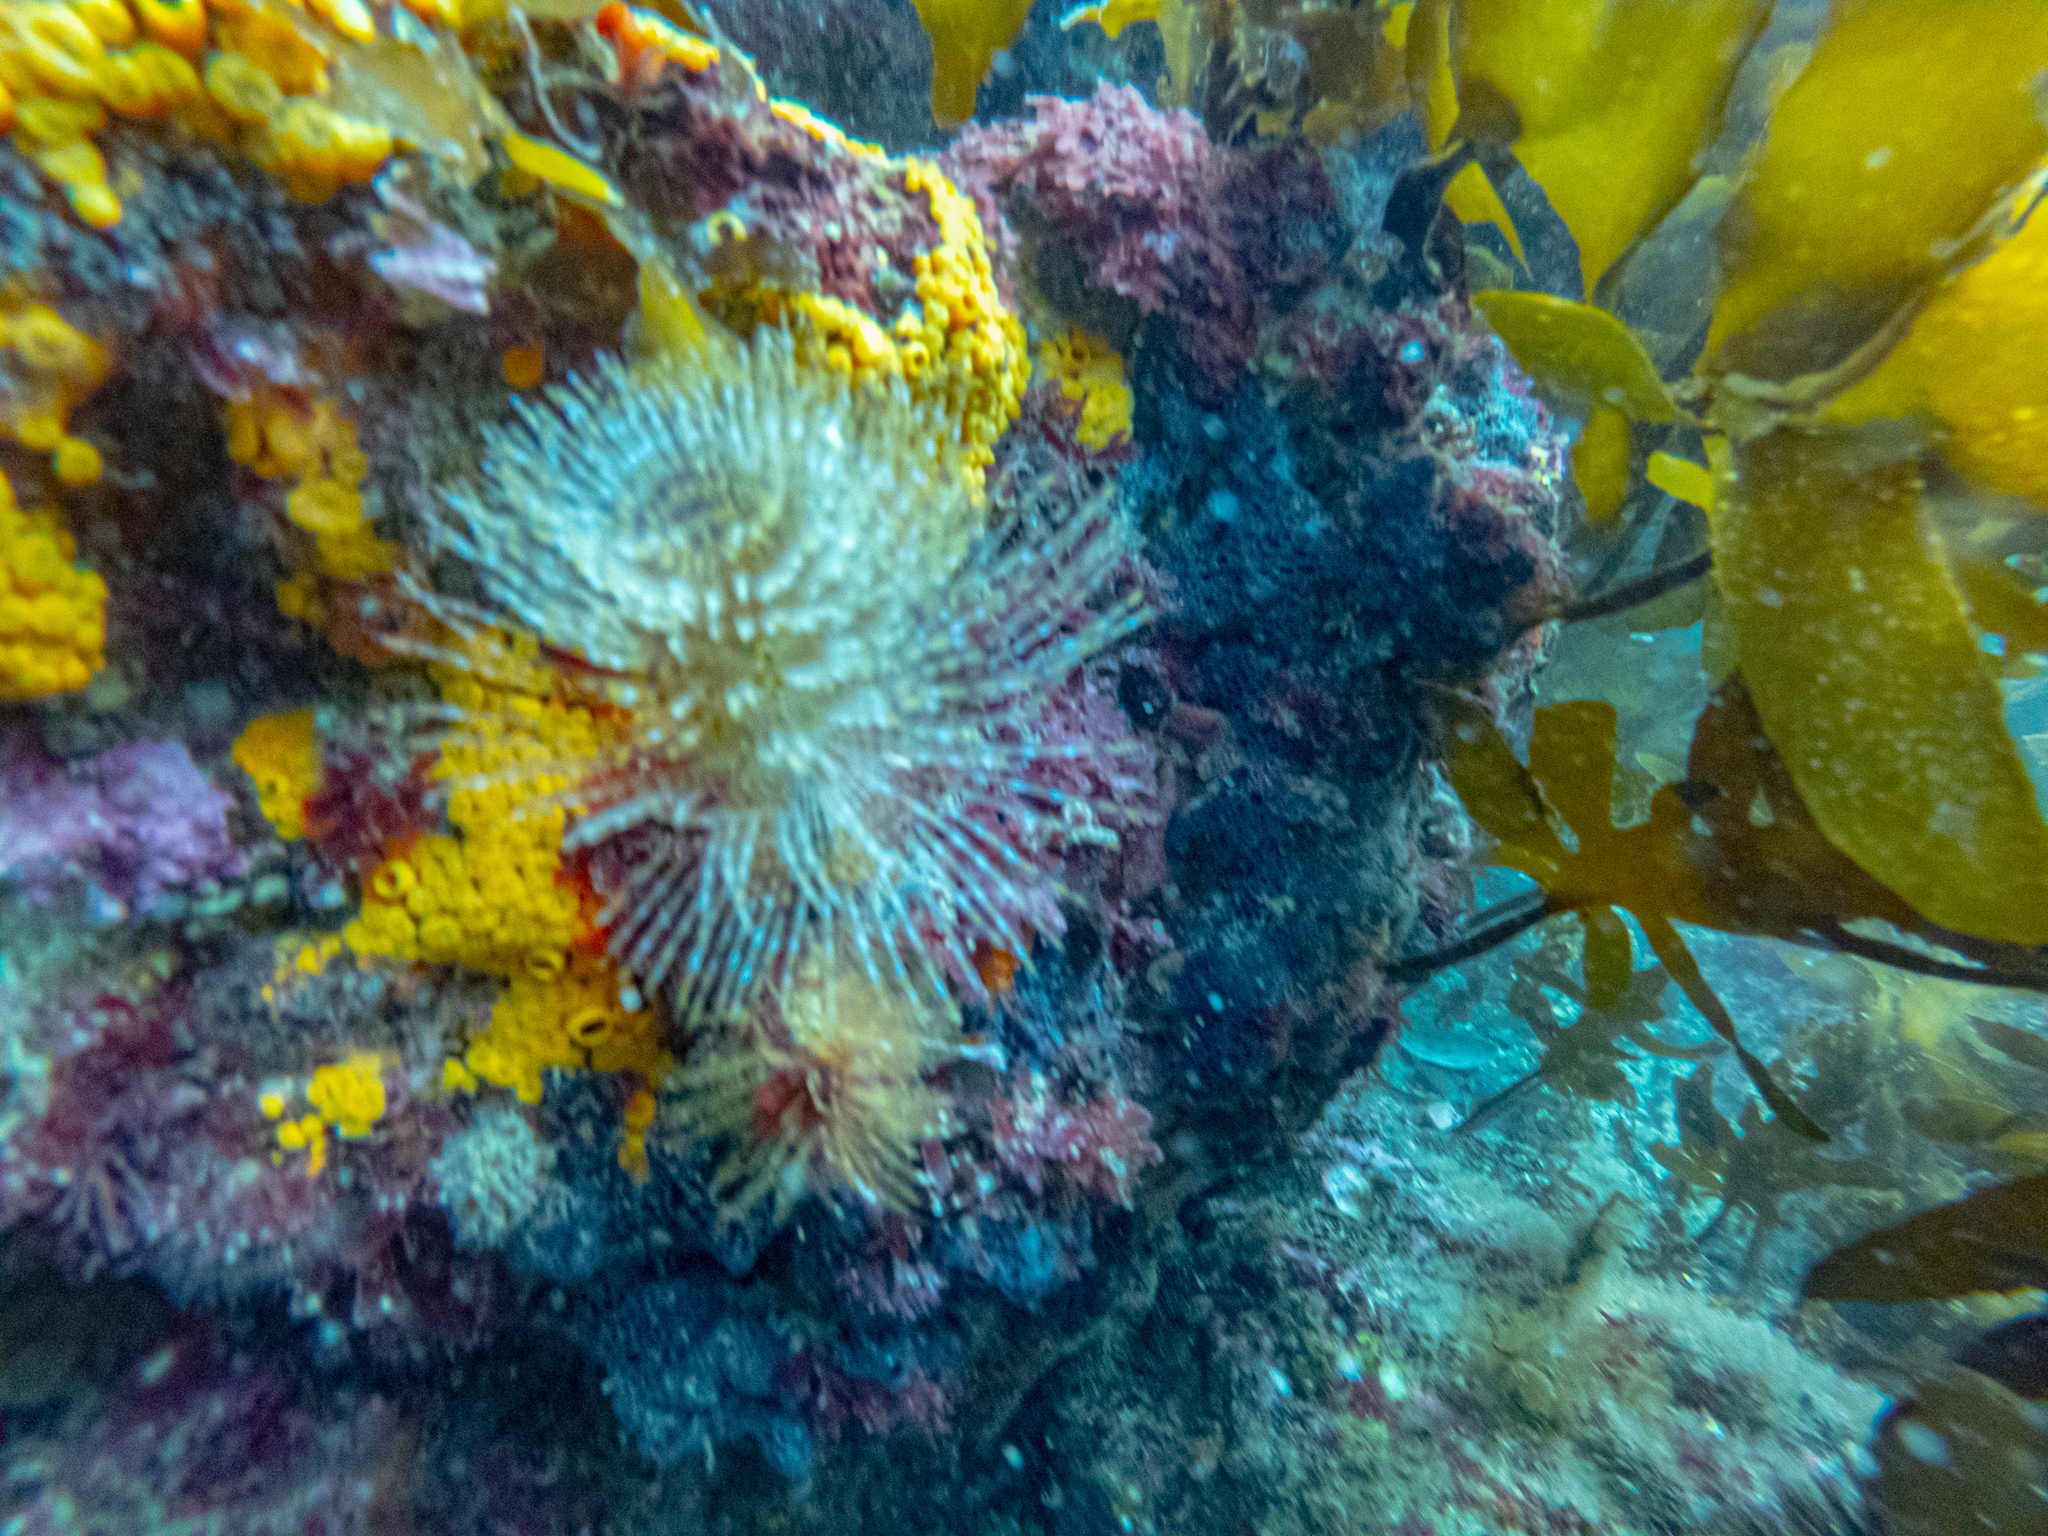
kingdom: Animalia
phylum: Annelida
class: Polychaeta
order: Sabellida
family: Sabellidae
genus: Sabella
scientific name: Sabella spallanzanii
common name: Feather duster worm
